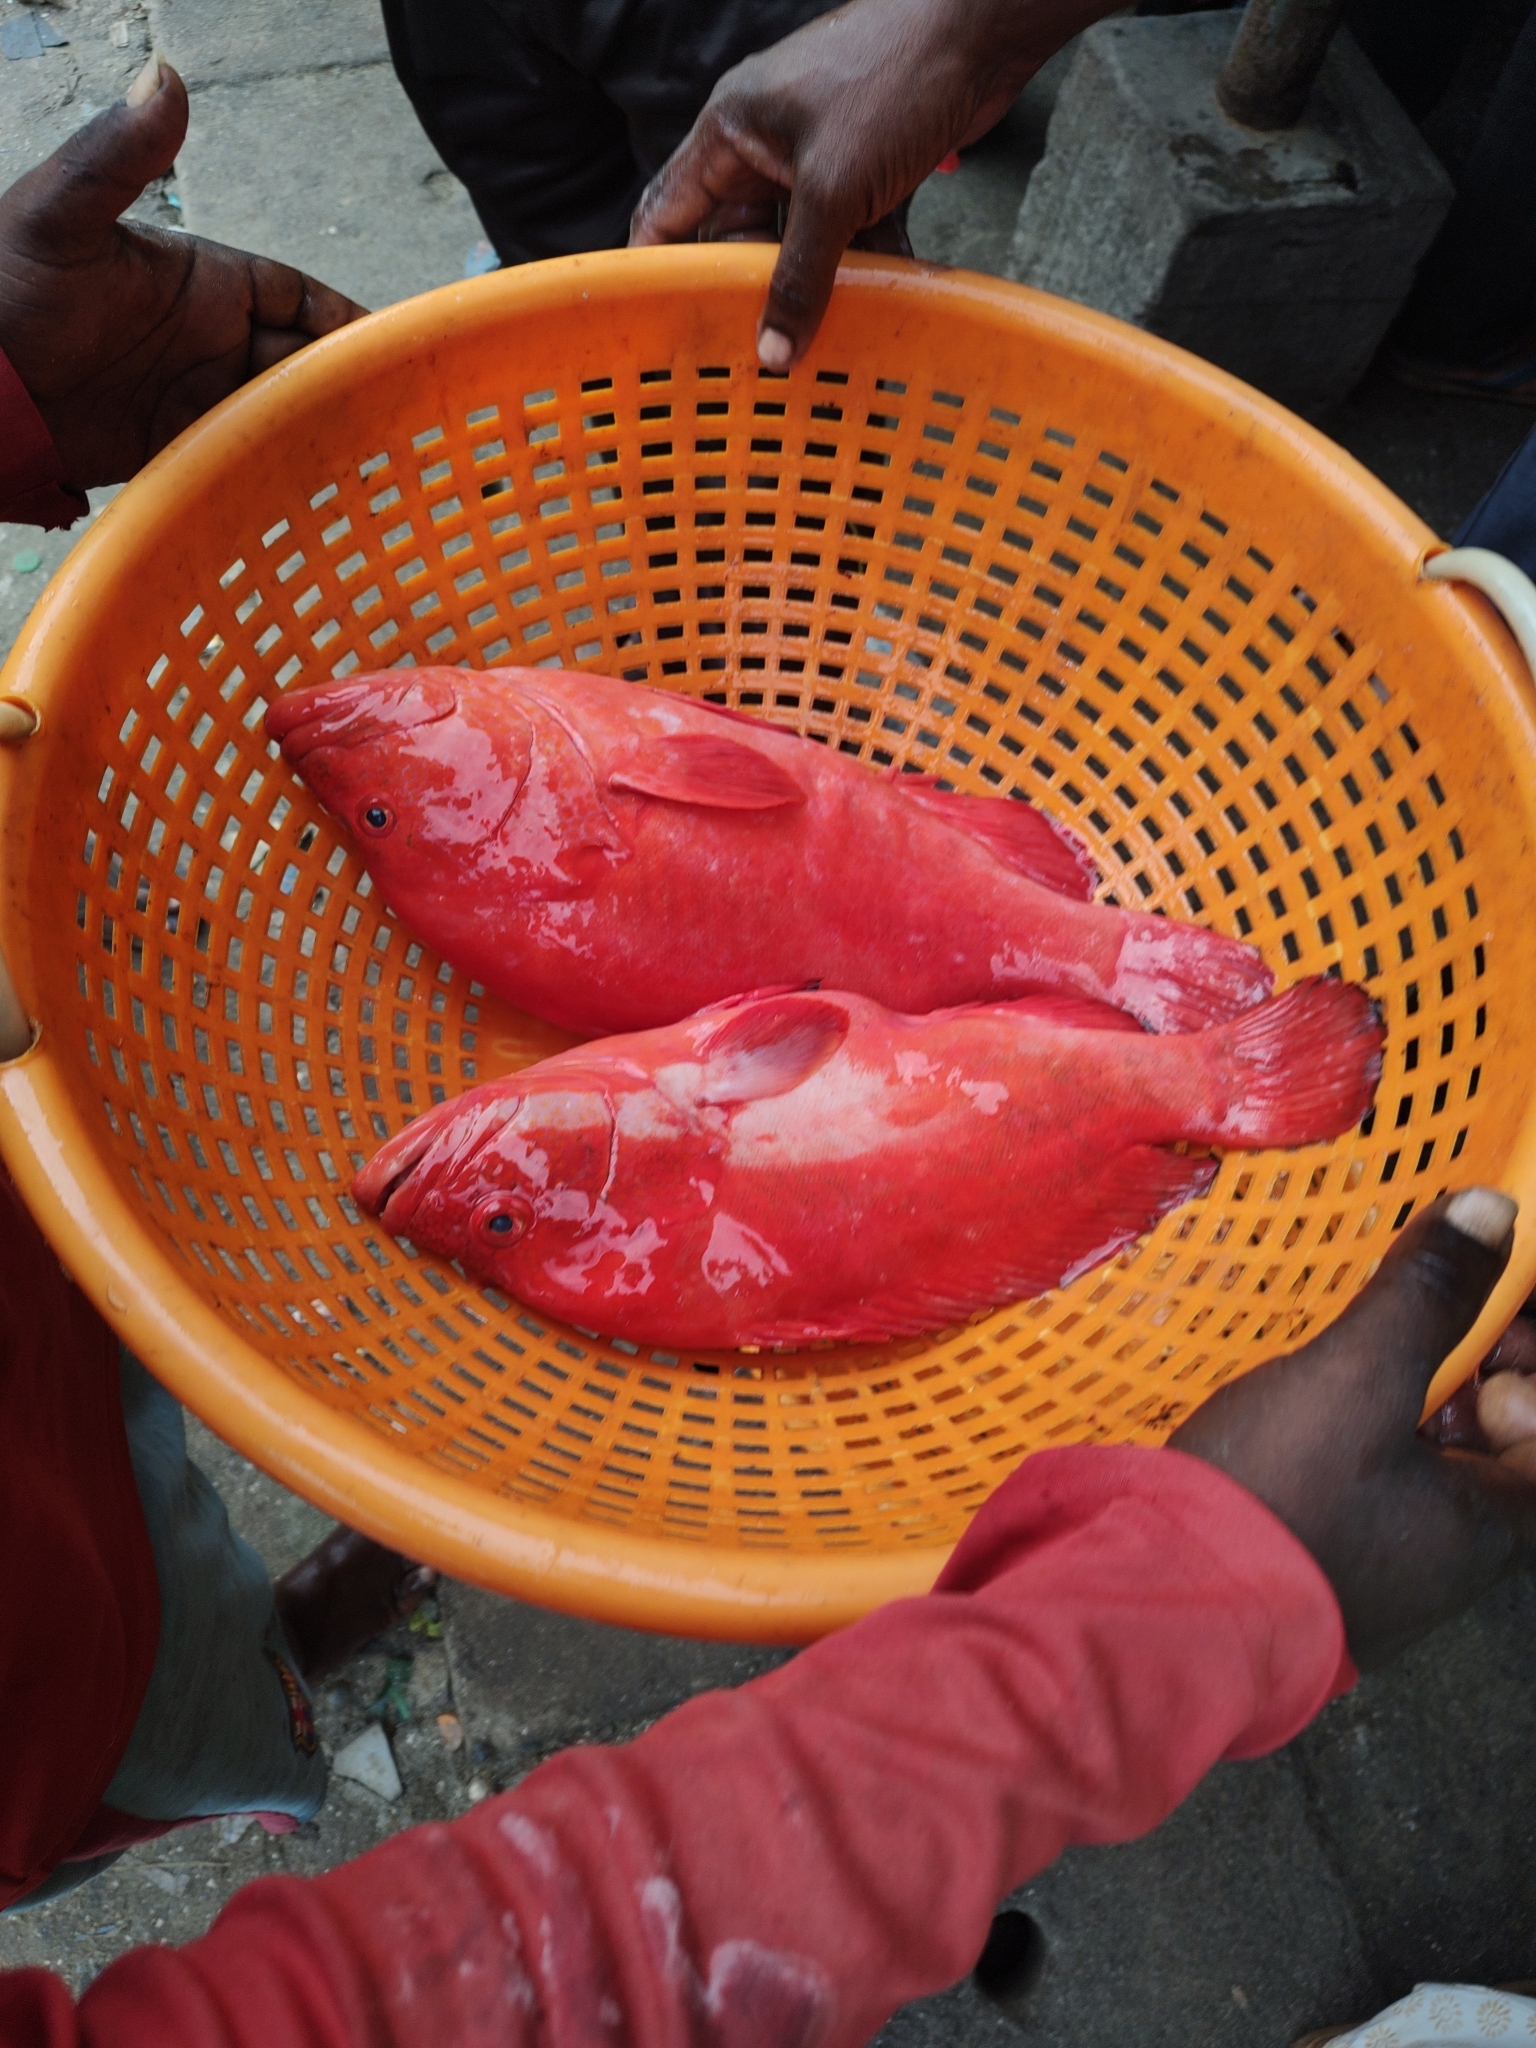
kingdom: Animalia
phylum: Chordata
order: Perciformes
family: Serranidae
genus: Cephalopholis
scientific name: Cephalopholis sonnerati
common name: Tomato hind
